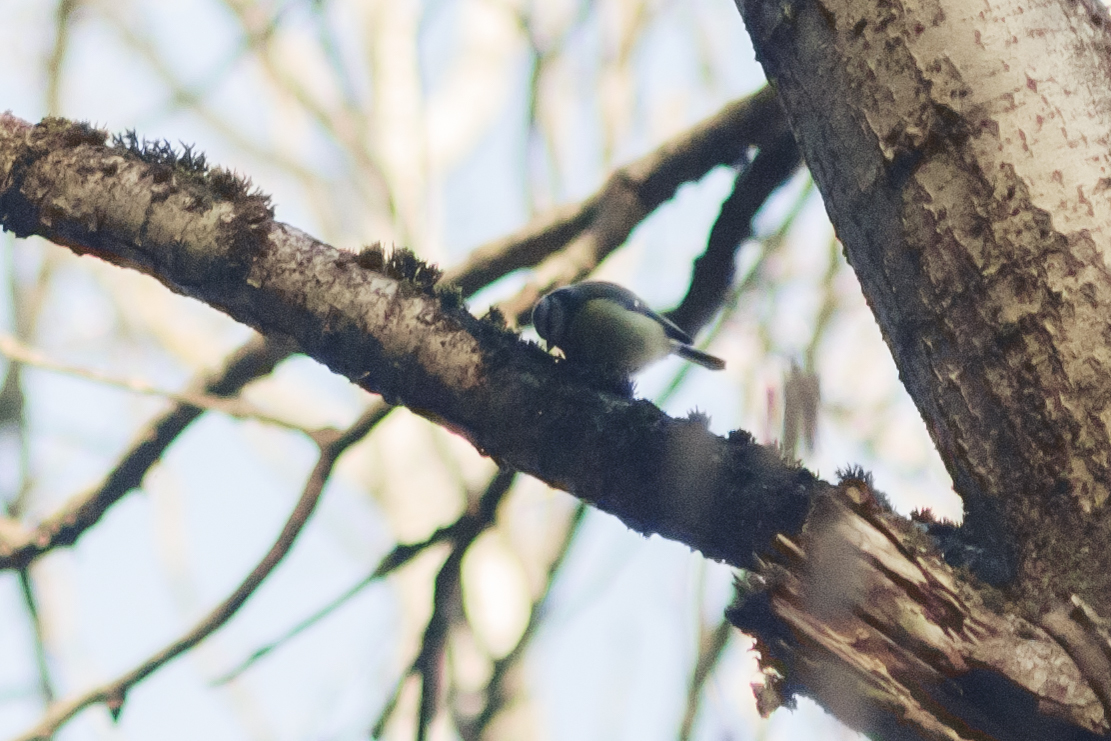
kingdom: Animalia
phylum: Chordata
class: Aves
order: Passeriformes
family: Paridae
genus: Cyanistes
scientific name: Cyanistes caeruleus
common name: Eurasian blue tit
